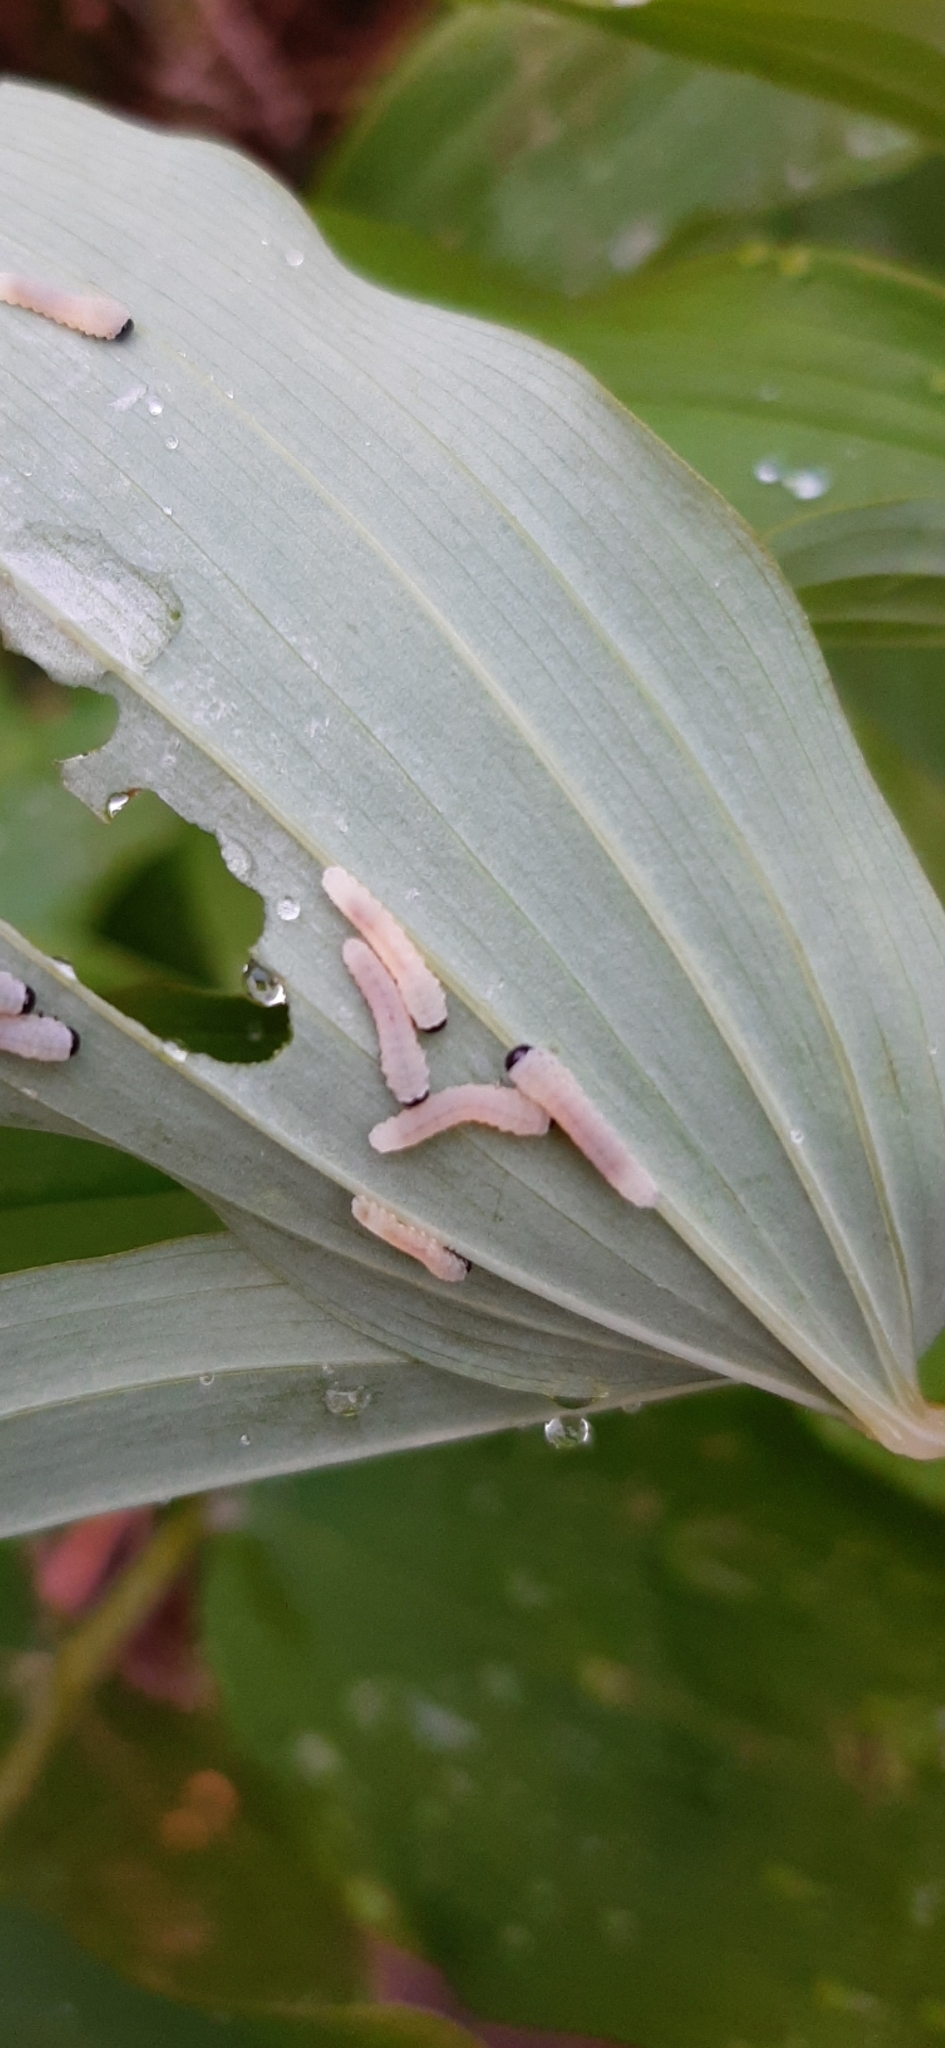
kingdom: Animalia
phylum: Arthropoda
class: Insecta
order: Hymenoptera
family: Tenthredinidae
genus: Phymatocera
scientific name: Phymatocera aterrima
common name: Solomon's-seal sawfly
